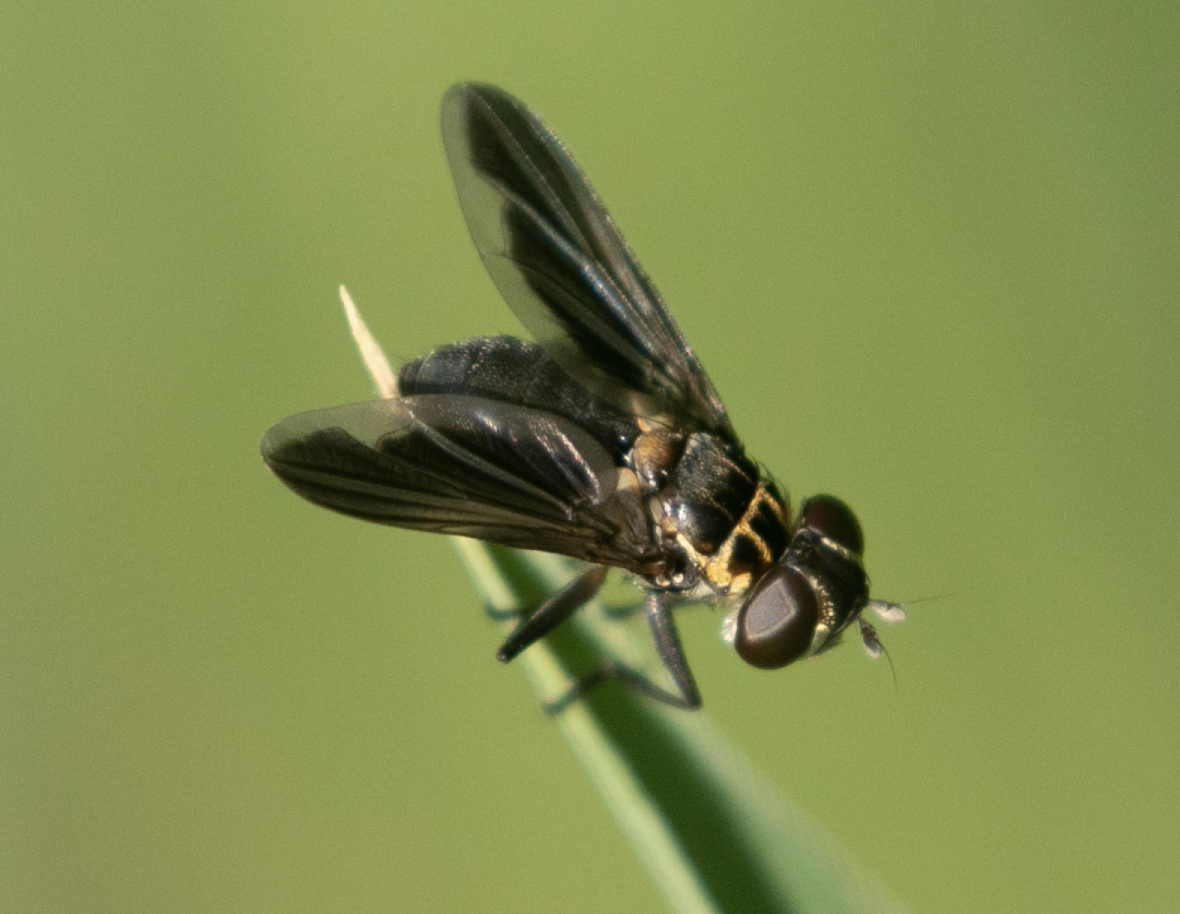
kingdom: Animalia
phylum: Arthropoda
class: Insecta
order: Diptera
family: Tachinidae
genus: Trichopoda
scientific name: Trichopoda pictipennis
